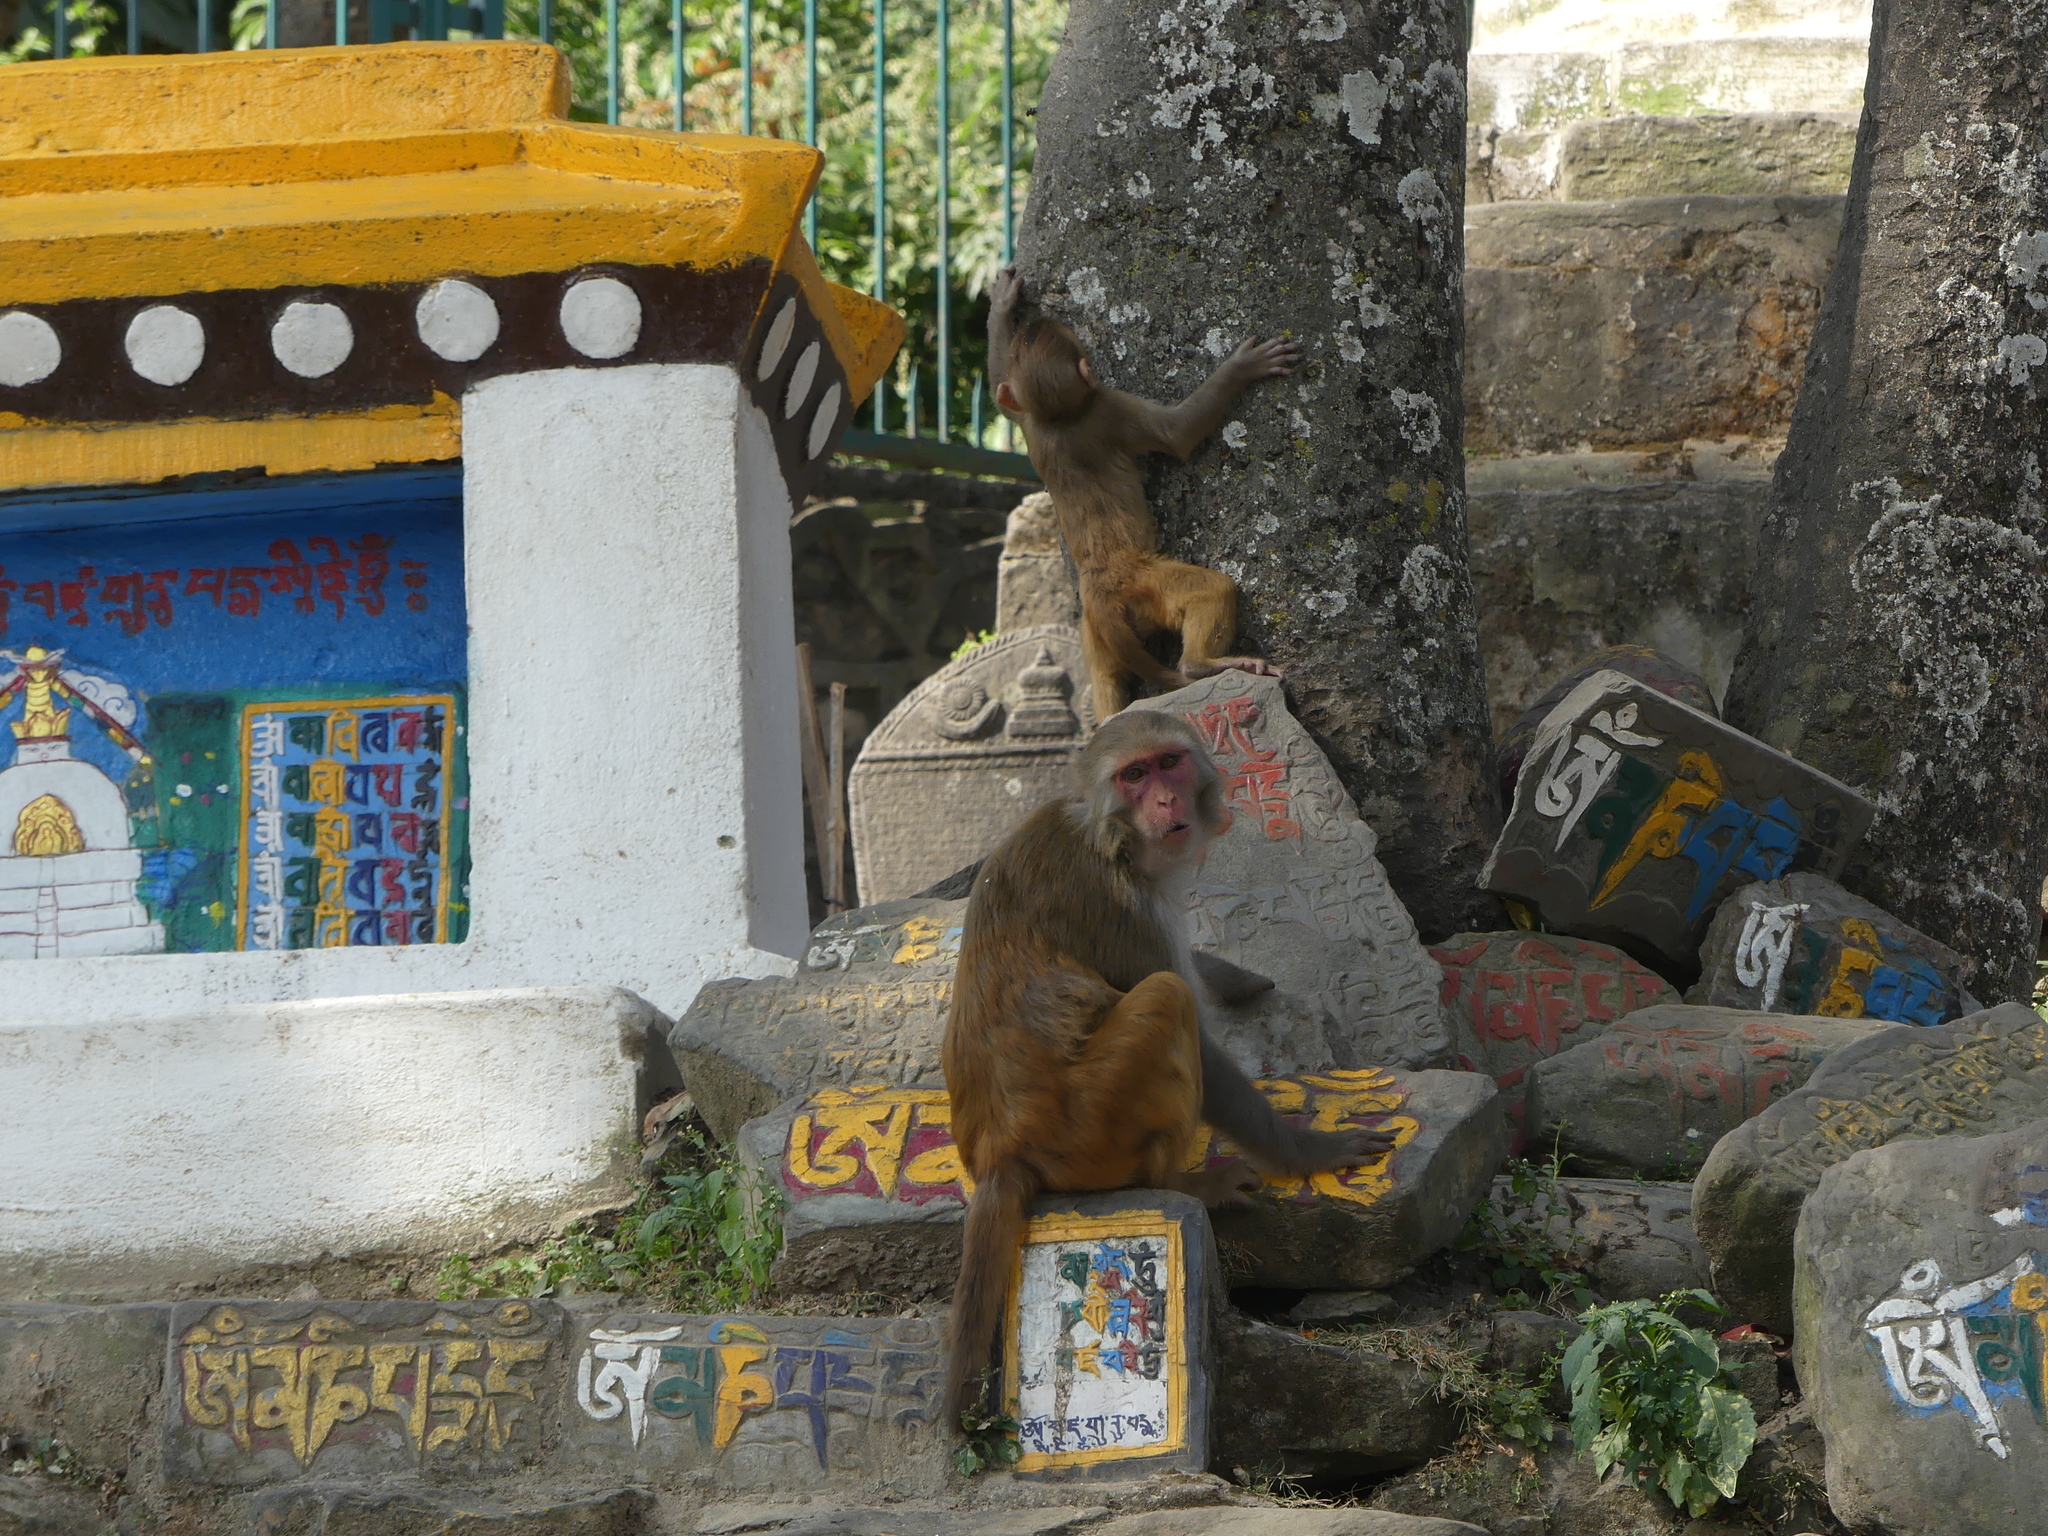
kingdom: Animalia
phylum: Chordata
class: Mammalia
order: Primates
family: Cercopithecidae
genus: Macaca
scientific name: Macaca mulatta
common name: Rhesus monkey
